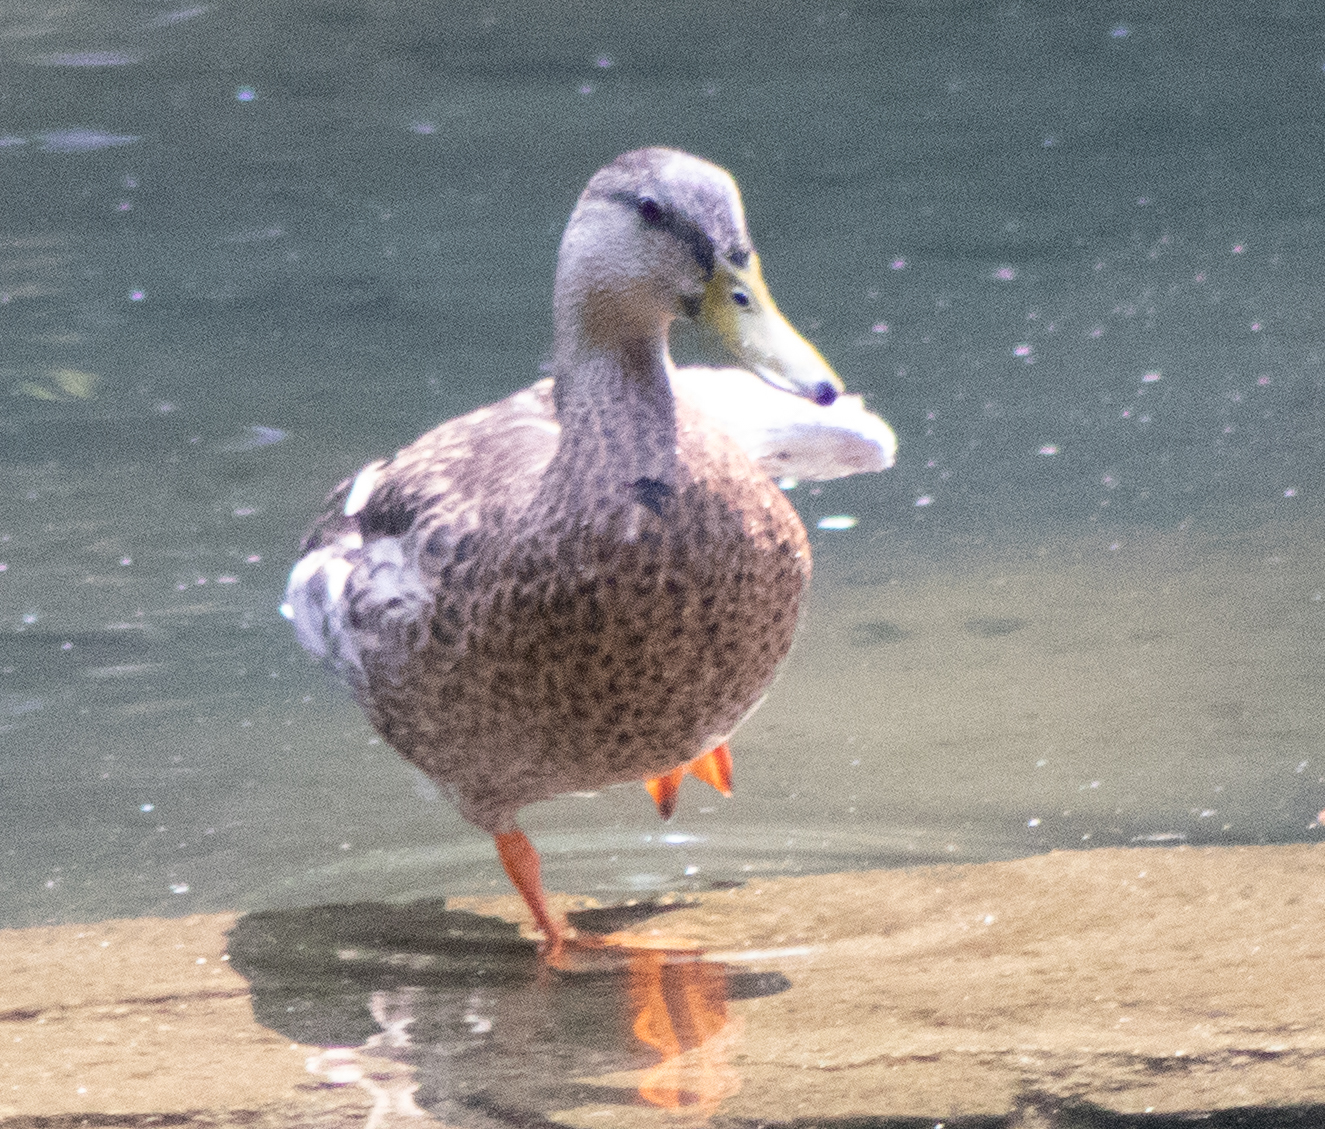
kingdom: Animalia
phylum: Chordata
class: Aves
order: Anseriformes
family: Anatidae
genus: Anas
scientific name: Anas platyrhynchos
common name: Mallard
